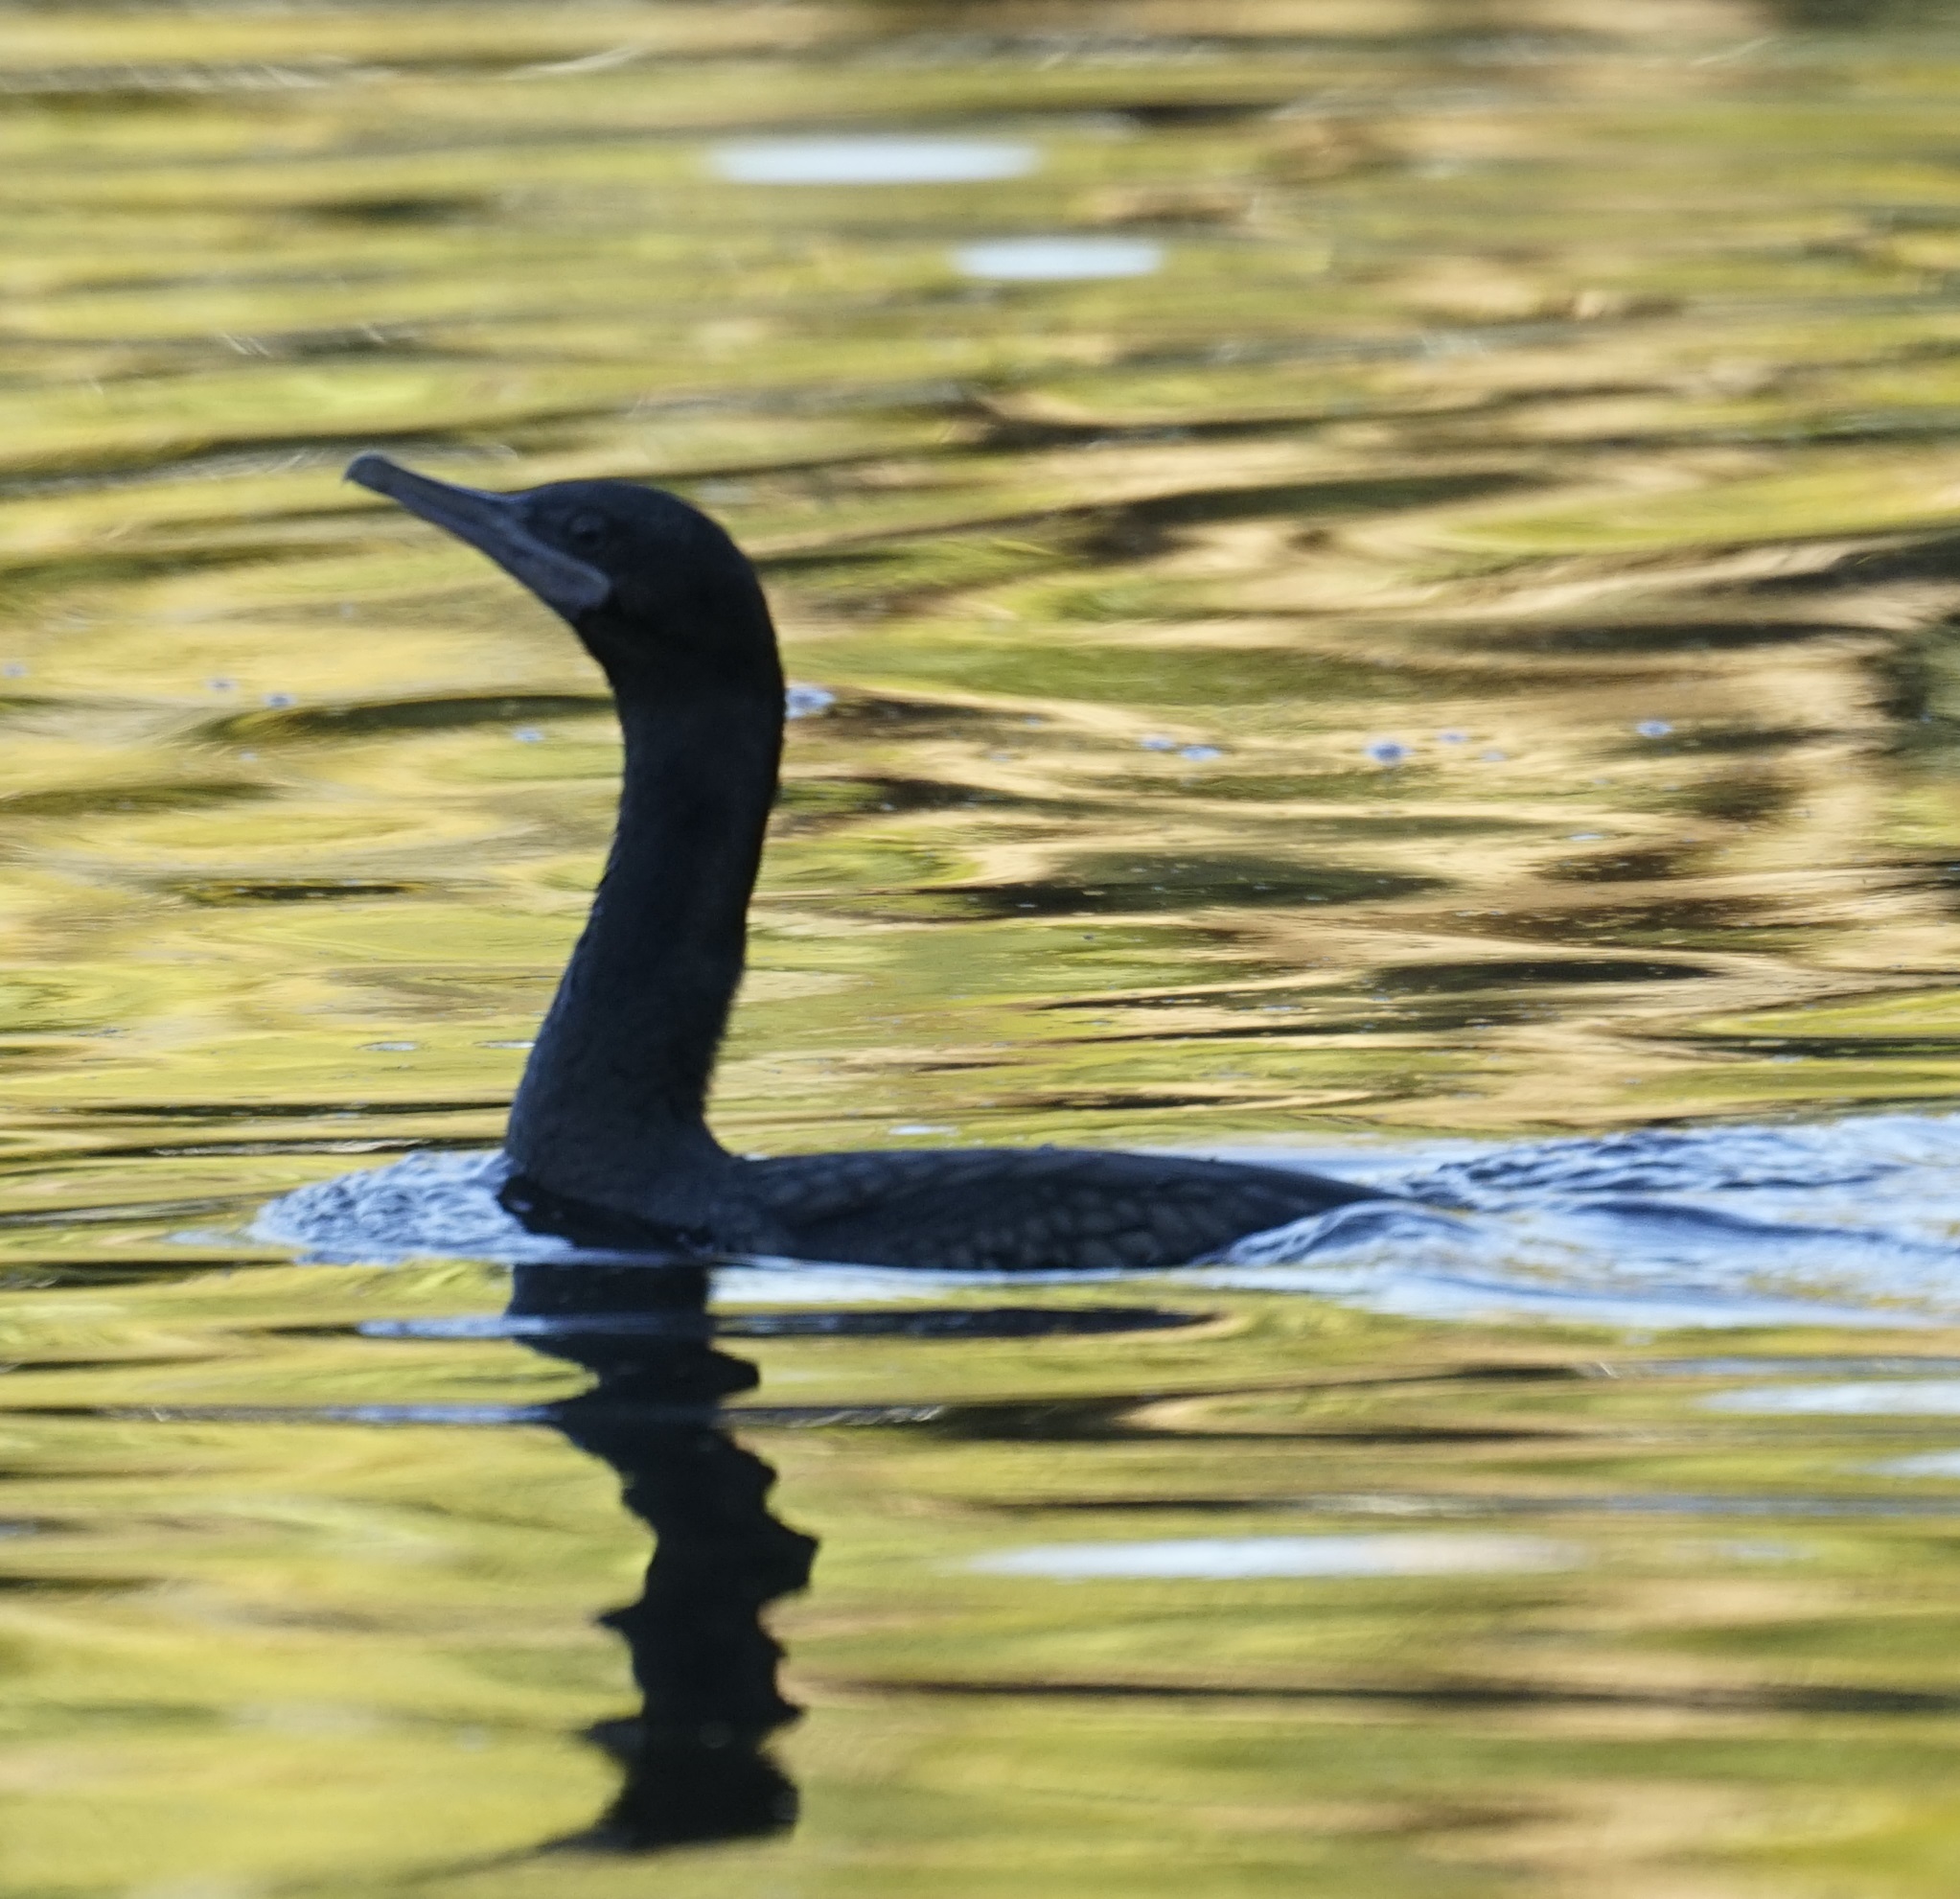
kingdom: Animalia
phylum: Chordata
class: Aves
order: Suliformes
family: Phalacrocoracidae
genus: Phalacrocorax
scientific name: Phalacrocorax sulcirostris
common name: Little black cormorant
